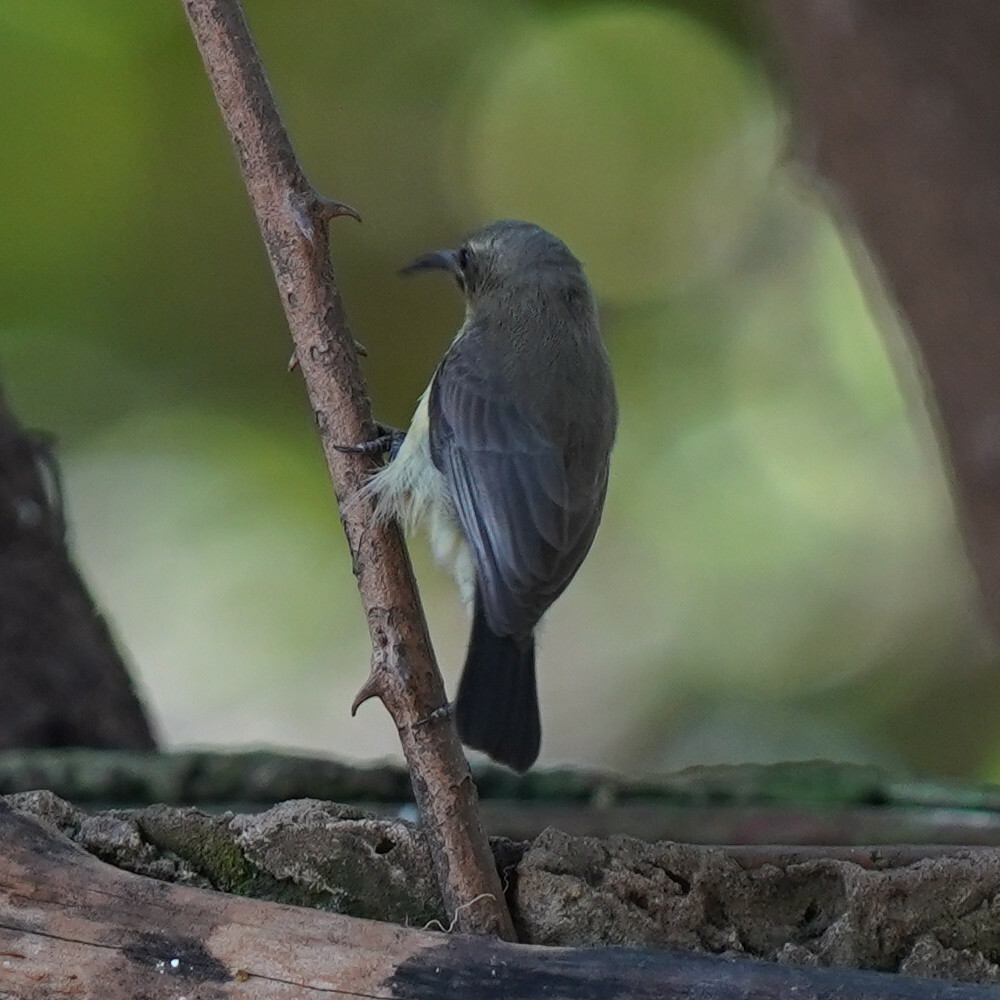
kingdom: Animalia
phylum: Chordata
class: Aves
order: Passeriformes
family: Nectariniidae
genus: Cinnyris
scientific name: Cinnyris venustus
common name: Variable sunbird
